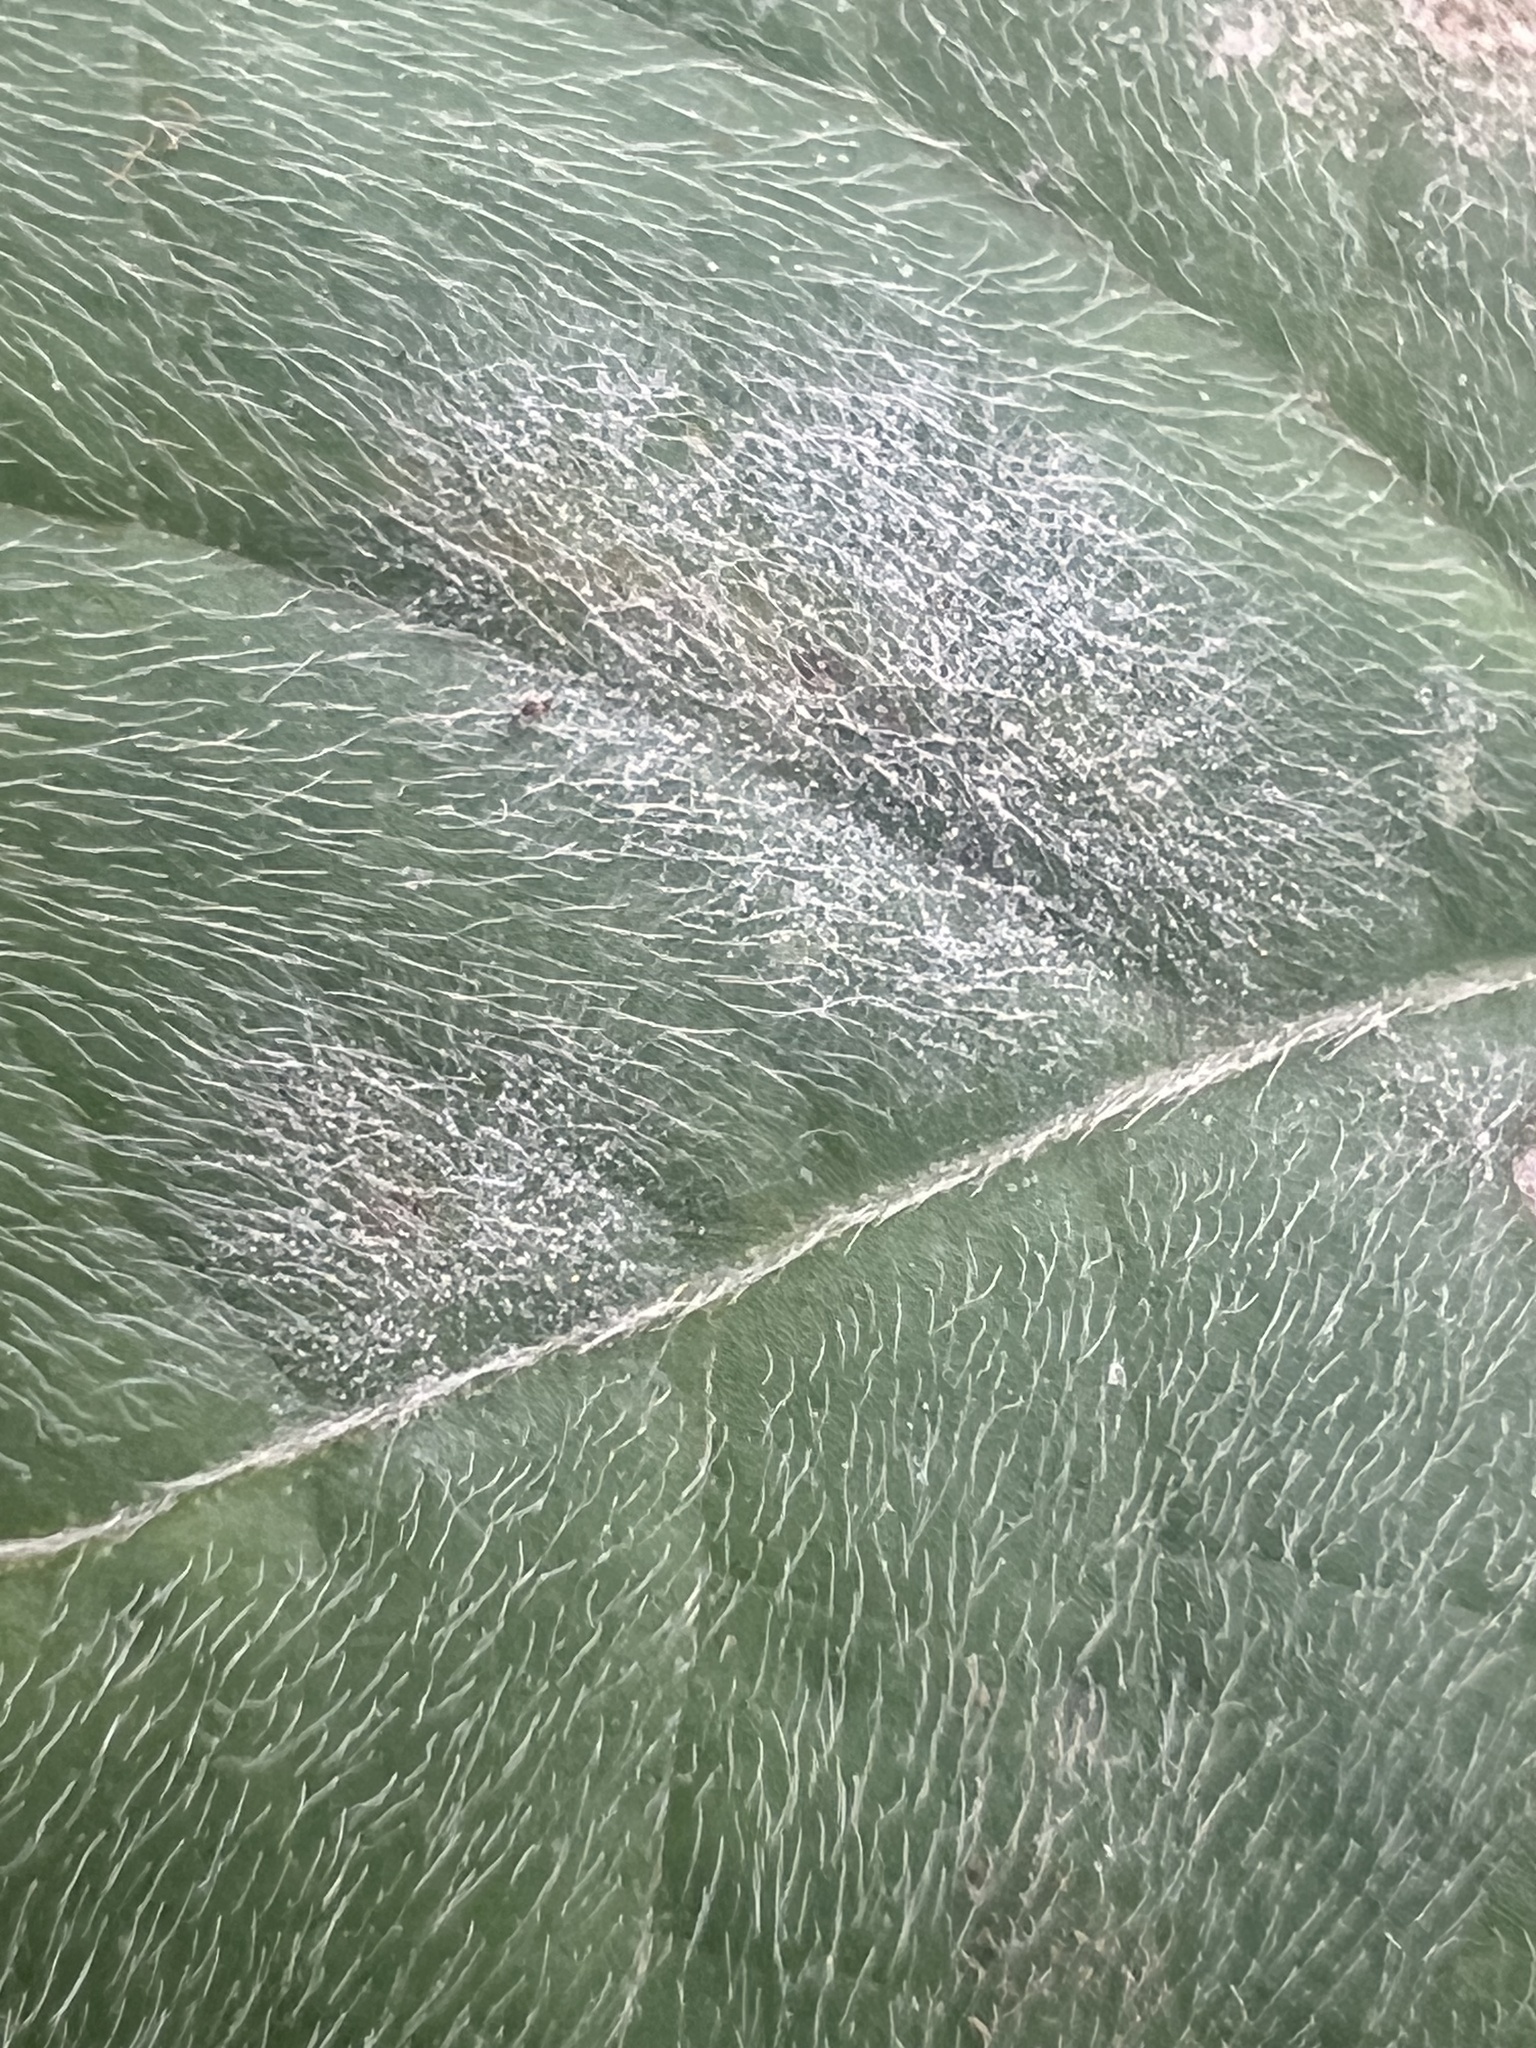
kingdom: Fungi
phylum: Ascomycota
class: Leotiomycetes
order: Helotiales
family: Erysiphaceae
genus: Erysiphe
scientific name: Erysiphe vignae
